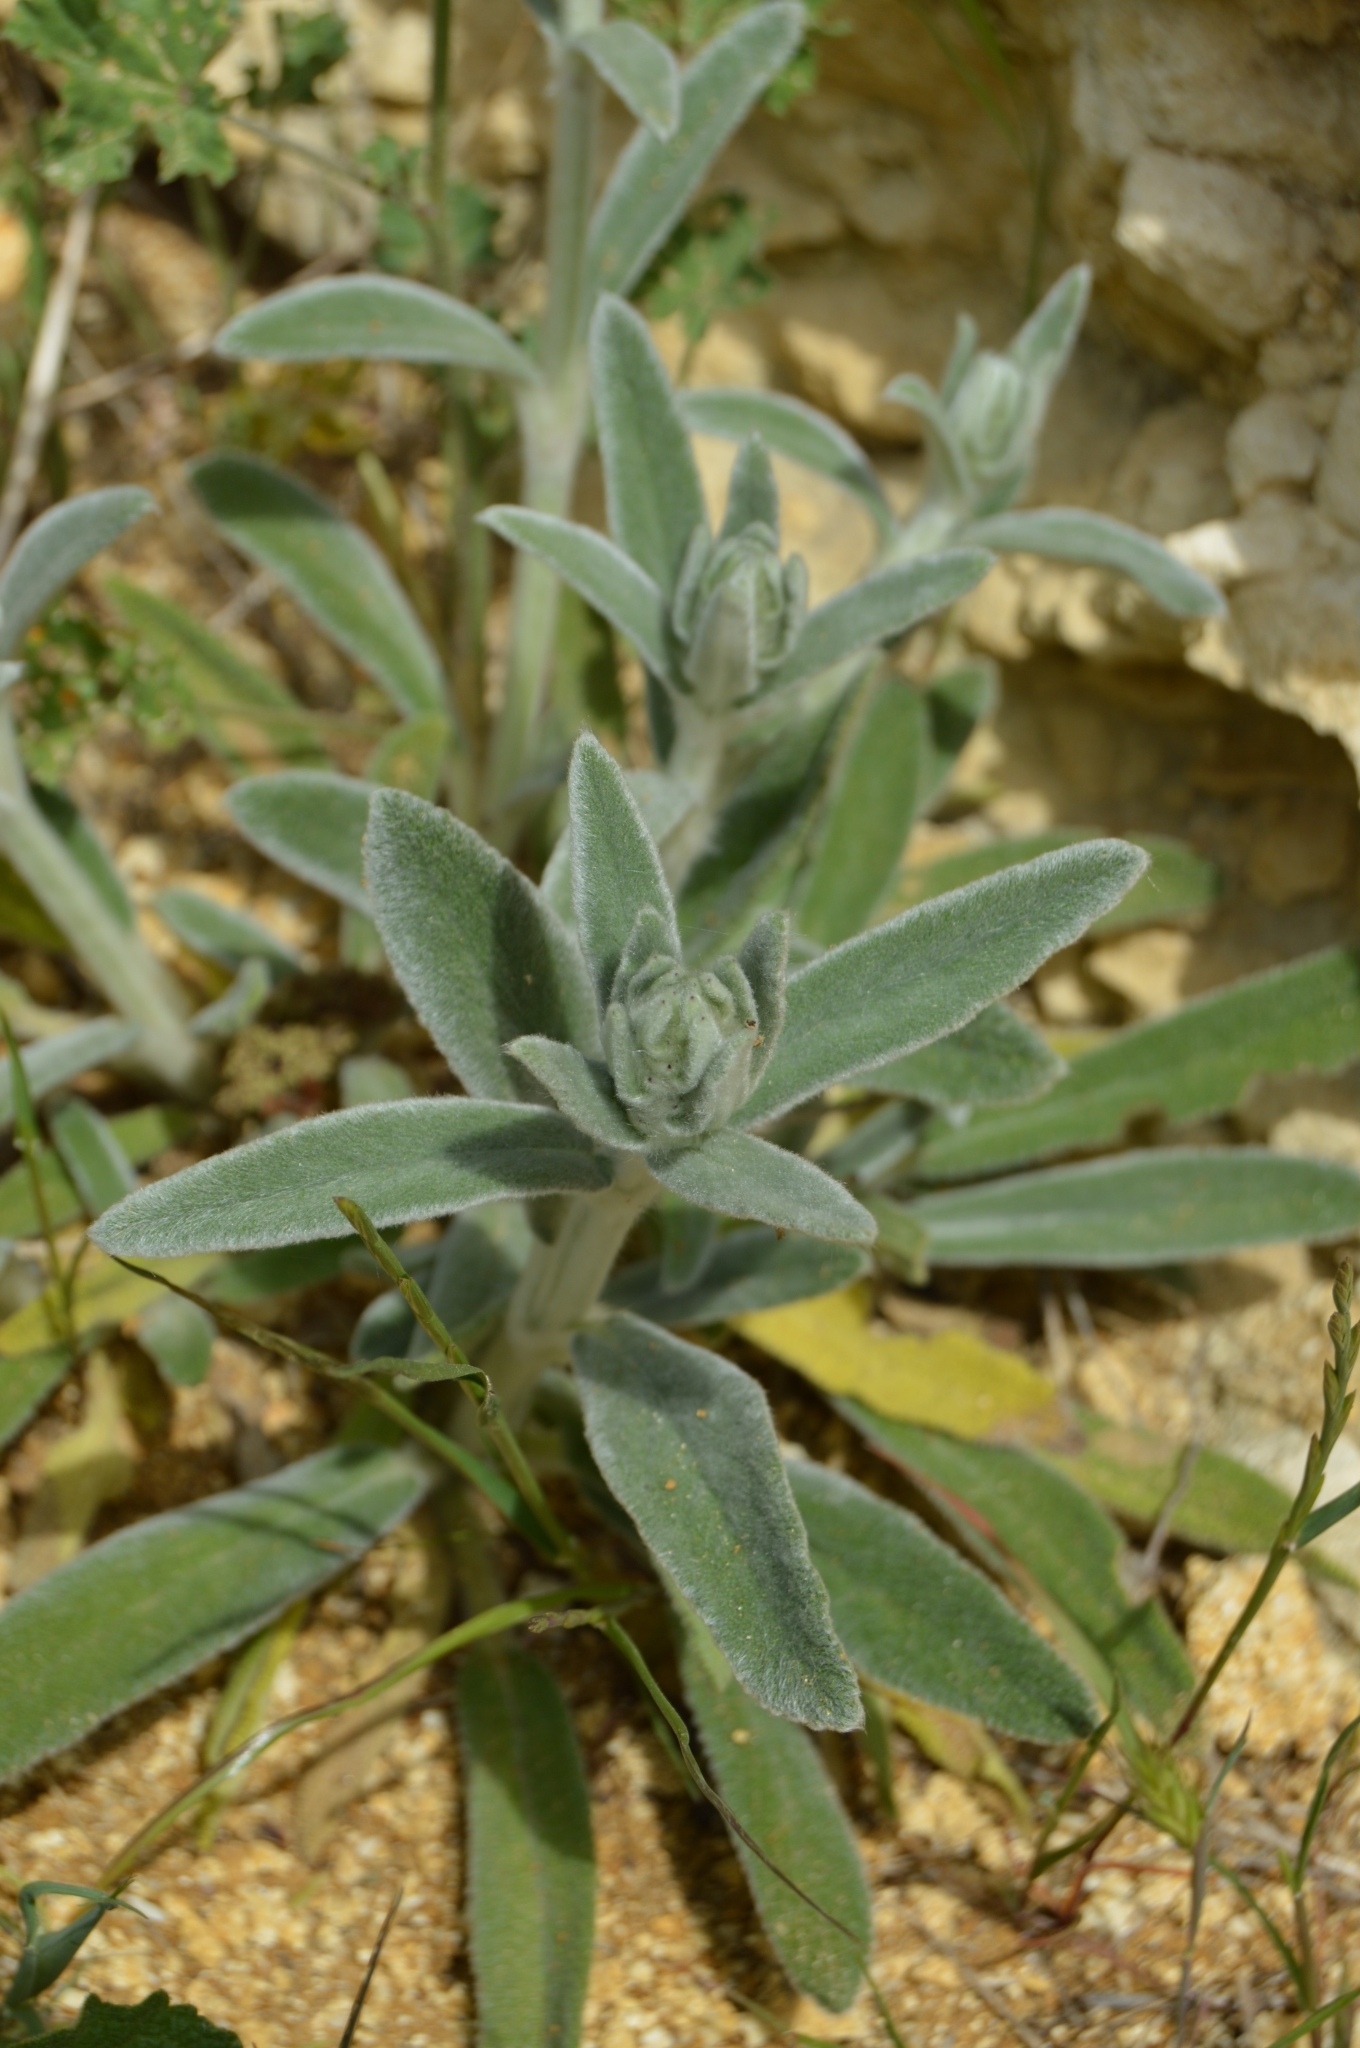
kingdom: Plantae
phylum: Tracheophyta
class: Magnoliopsida
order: Lamiales
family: Lamiaceae
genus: Stachys
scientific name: Stachys cretica
